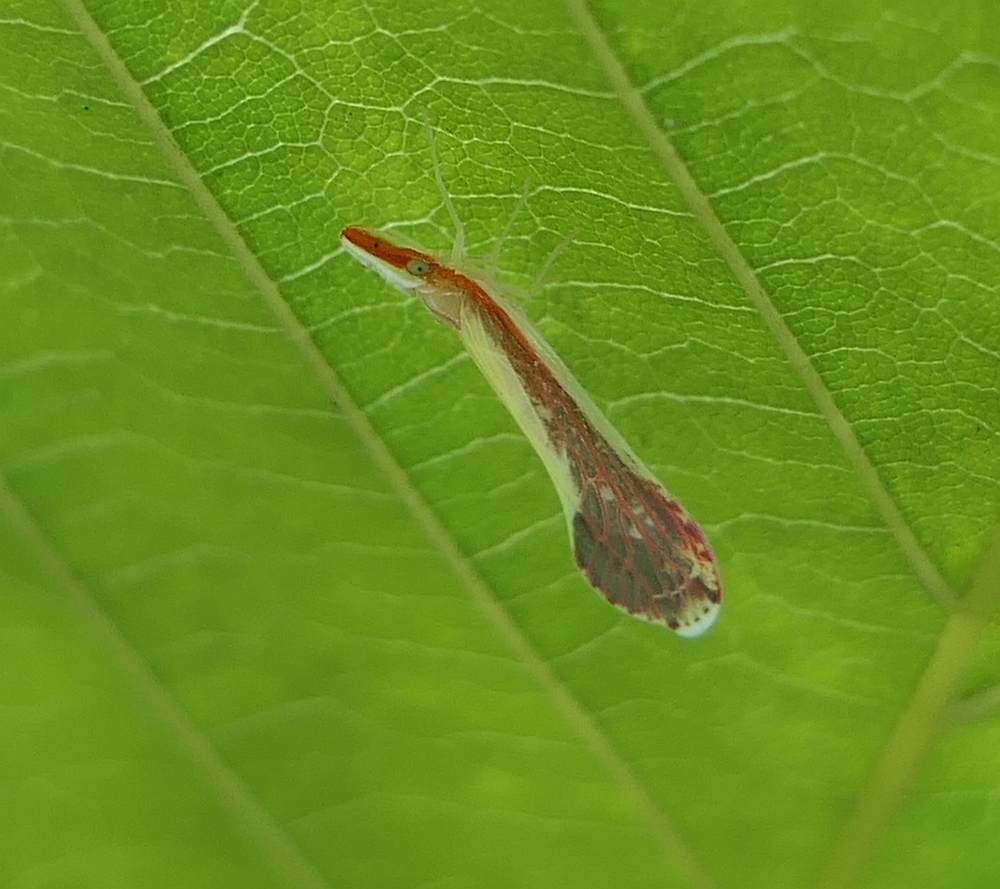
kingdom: Animalia
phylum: Arthropoda
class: Insecta
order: Hemiptera
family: Derbidae
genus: Shellenius
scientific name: Shellenius ballii
